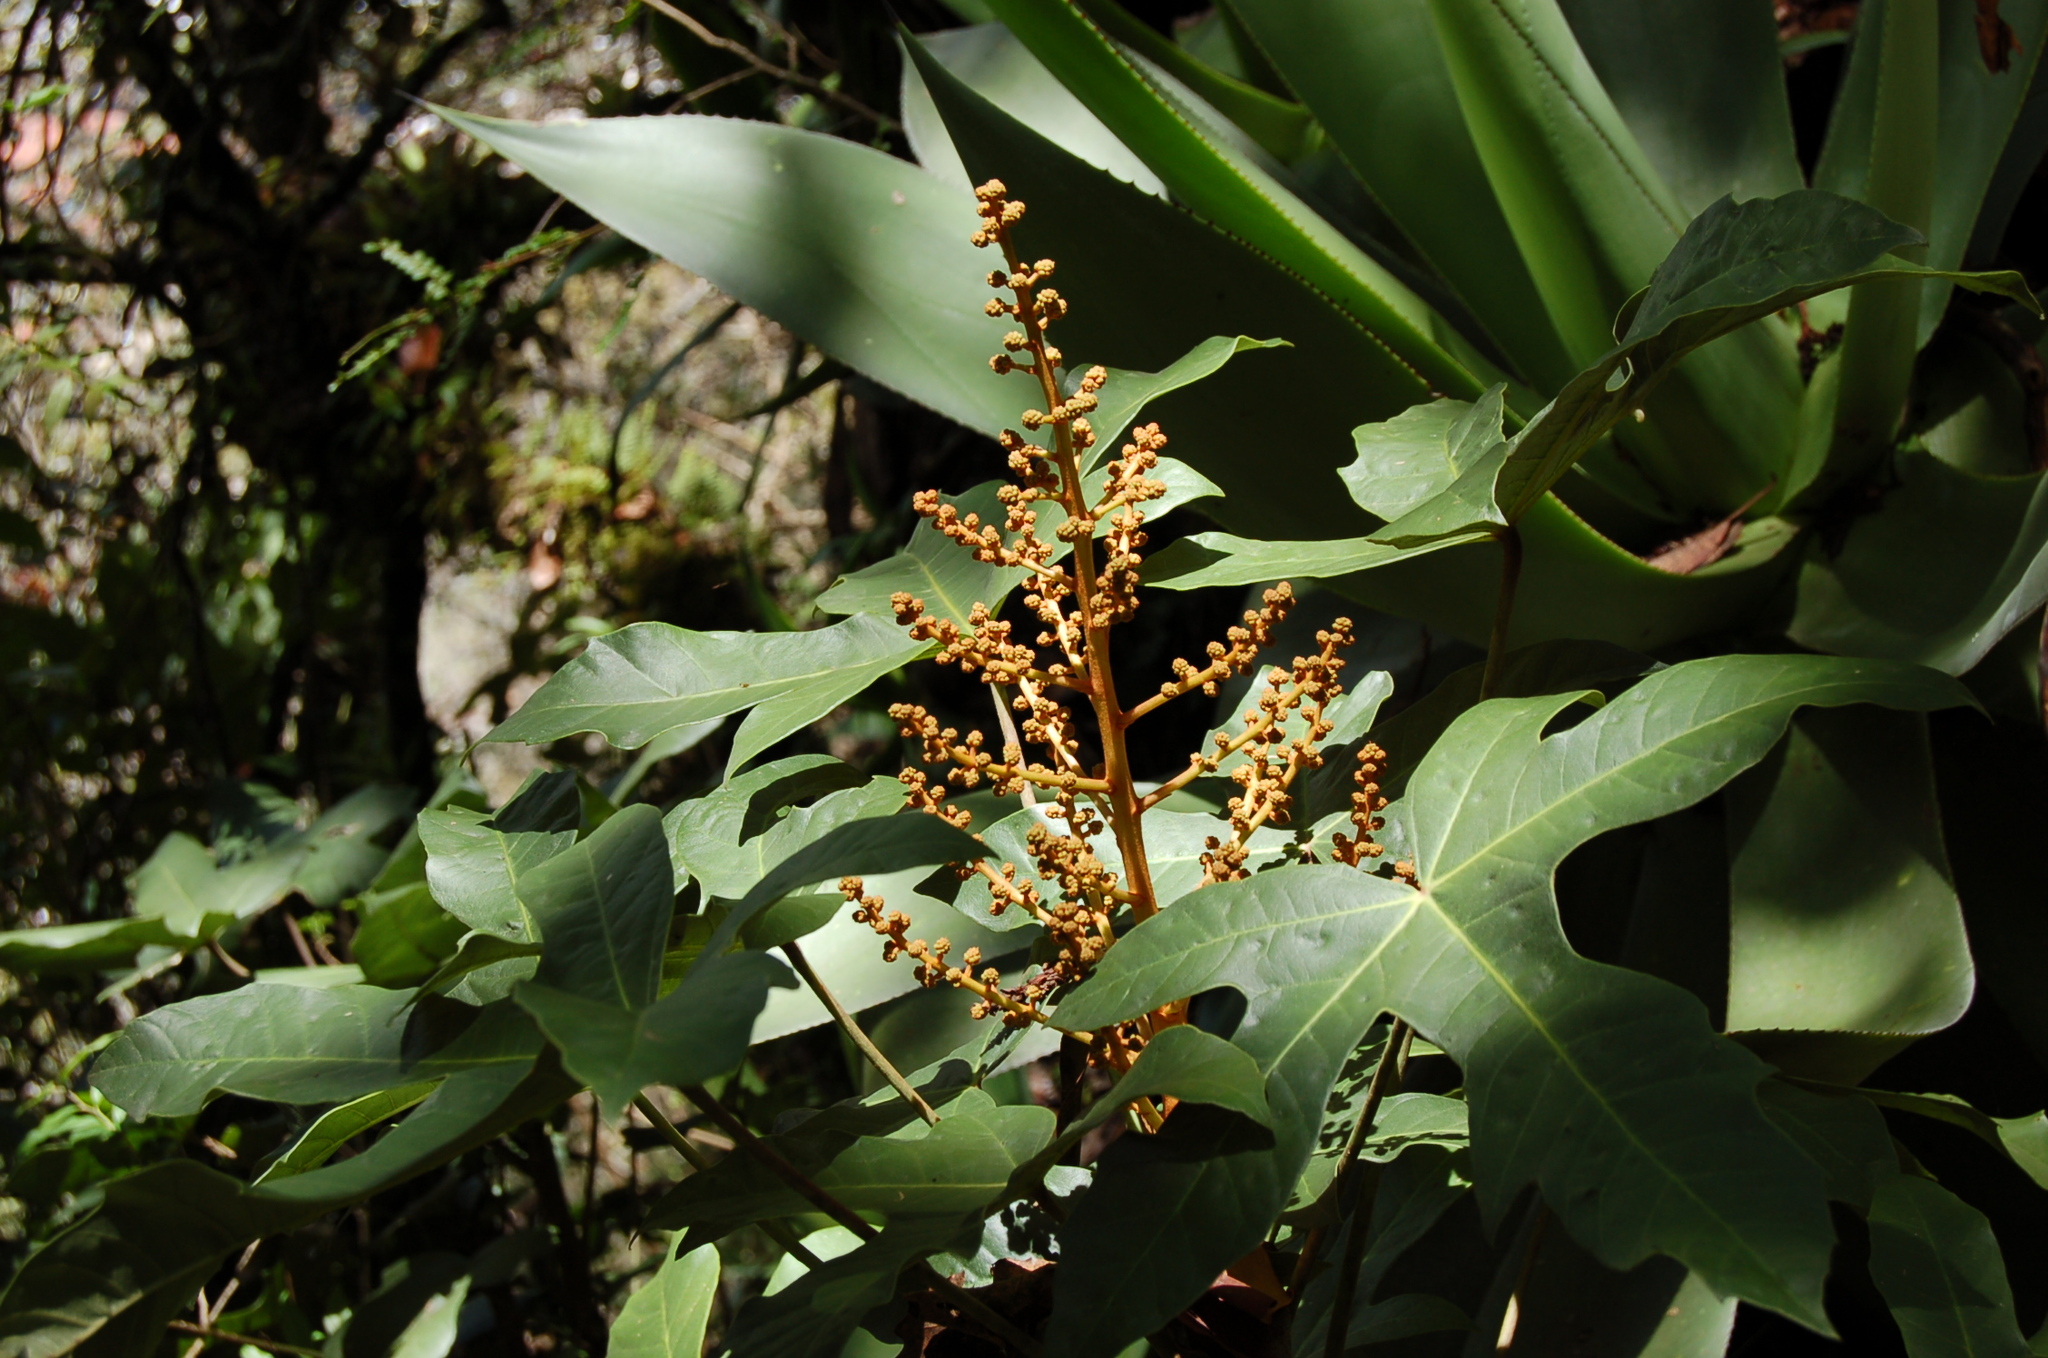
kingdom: Plantae
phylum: Tracheophyta
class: Magnoliopsida
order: Apiales
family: Araliaceae
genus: Oreopanax
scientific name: Oreopanax peltatus
